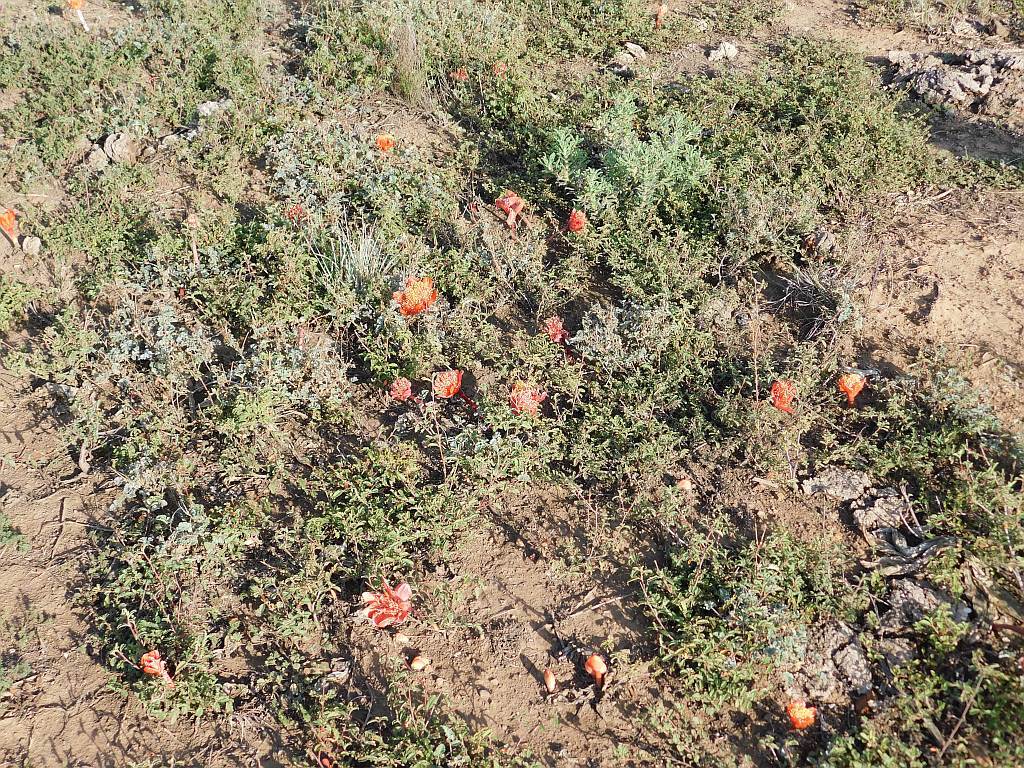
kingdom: Plantae
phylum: Tracheophyta
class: Liliopsida
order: Asparagales
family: Amaryllidaceae
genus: Haemanthus
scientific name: Haemanthus coccineus
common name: Cape-tulip
